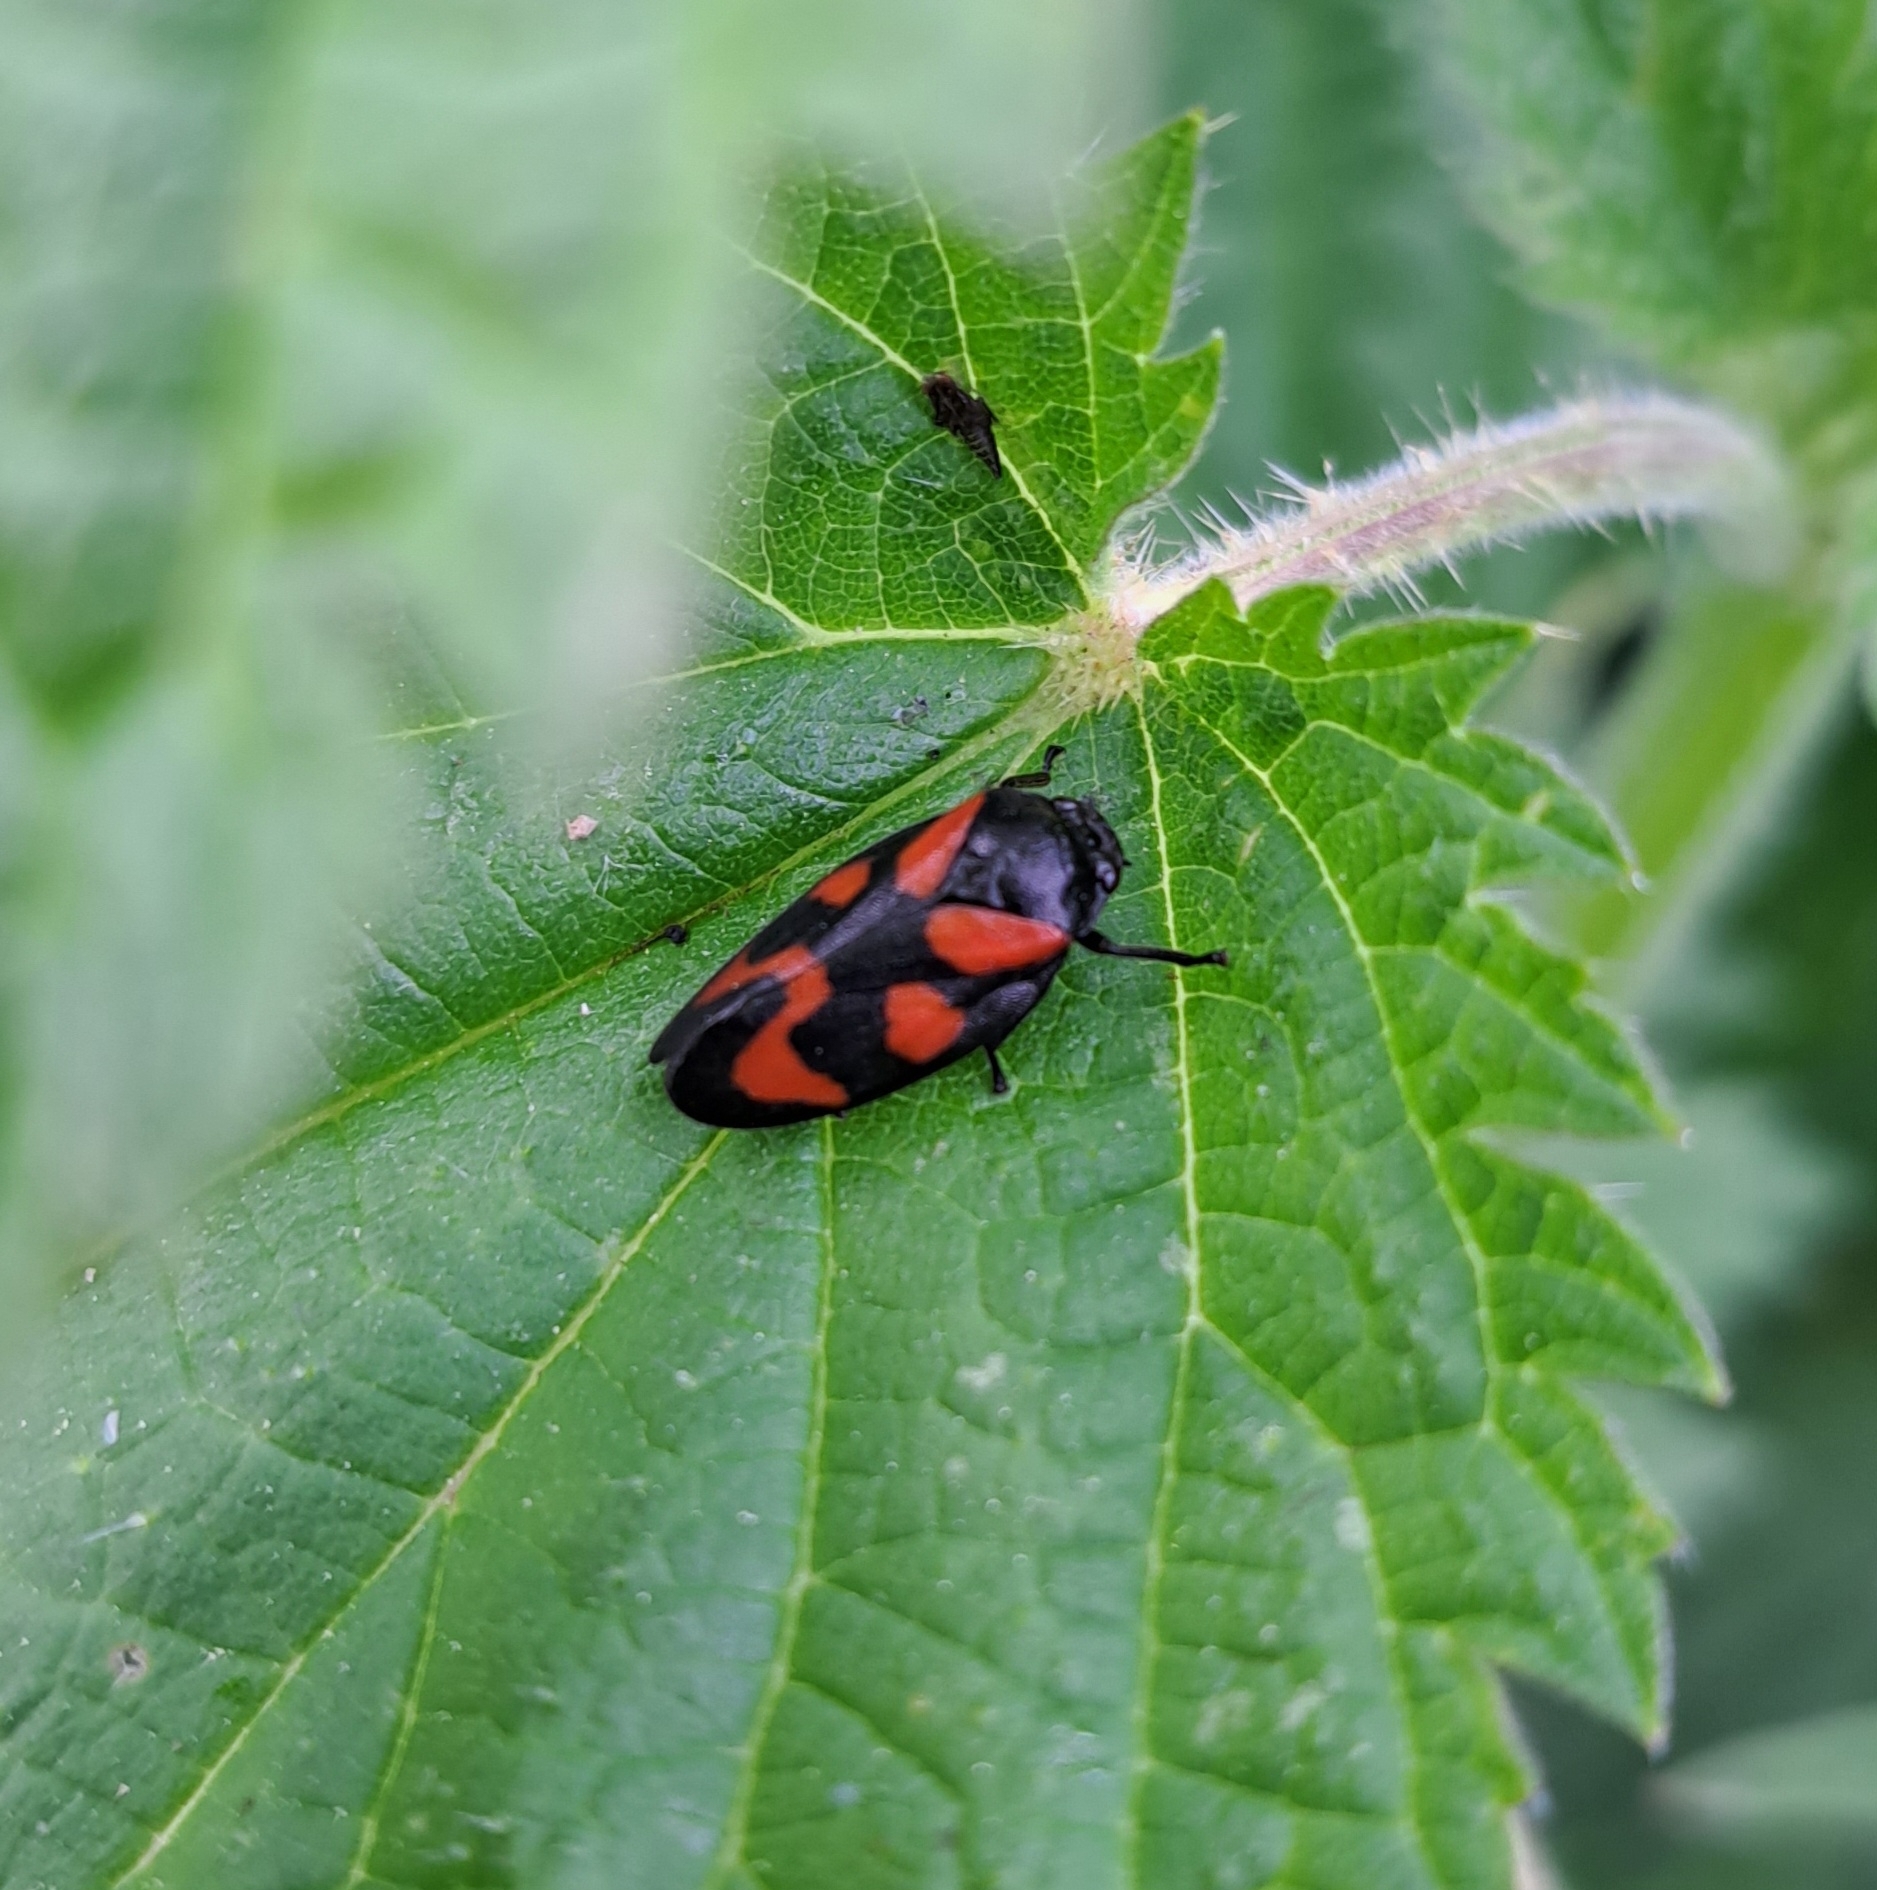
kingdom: Animalia
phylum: Arthropoda
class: Insecta
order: Hemiptera
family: Cercopidae
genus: Cercopis
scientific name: Cercopis vulnerata
